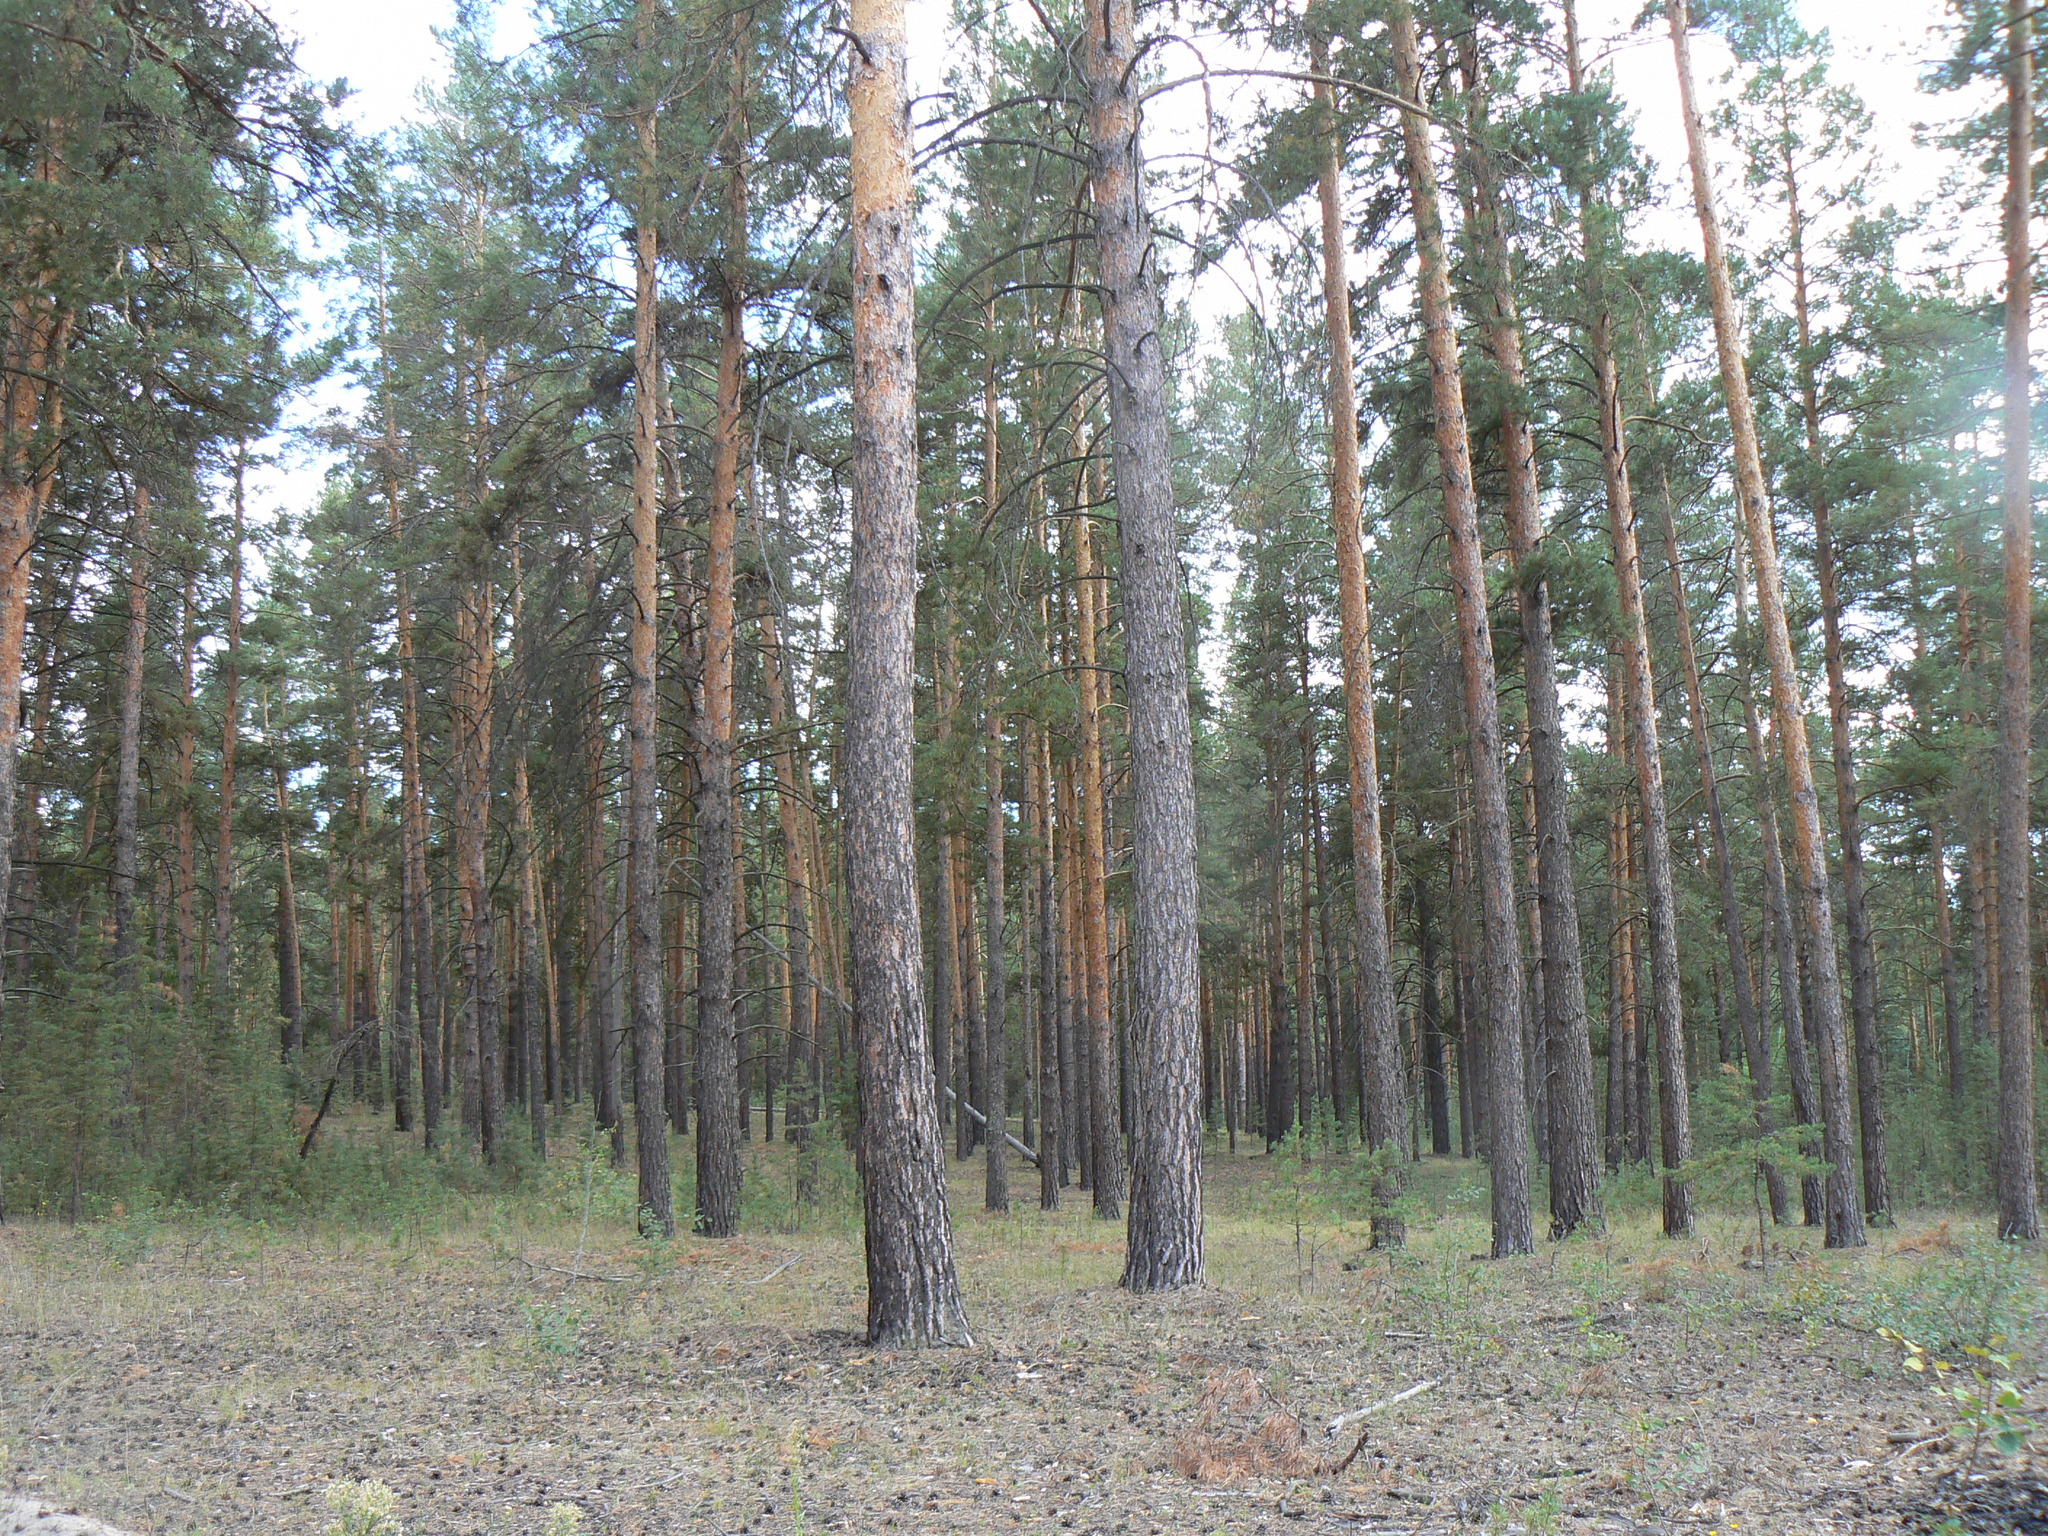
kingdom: Plantae
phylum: Tracheophyta
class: Pinopsida
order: Pinales
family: Pinaceae
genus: Pinus
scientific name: Pinus sylvestris
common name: Scots pine
